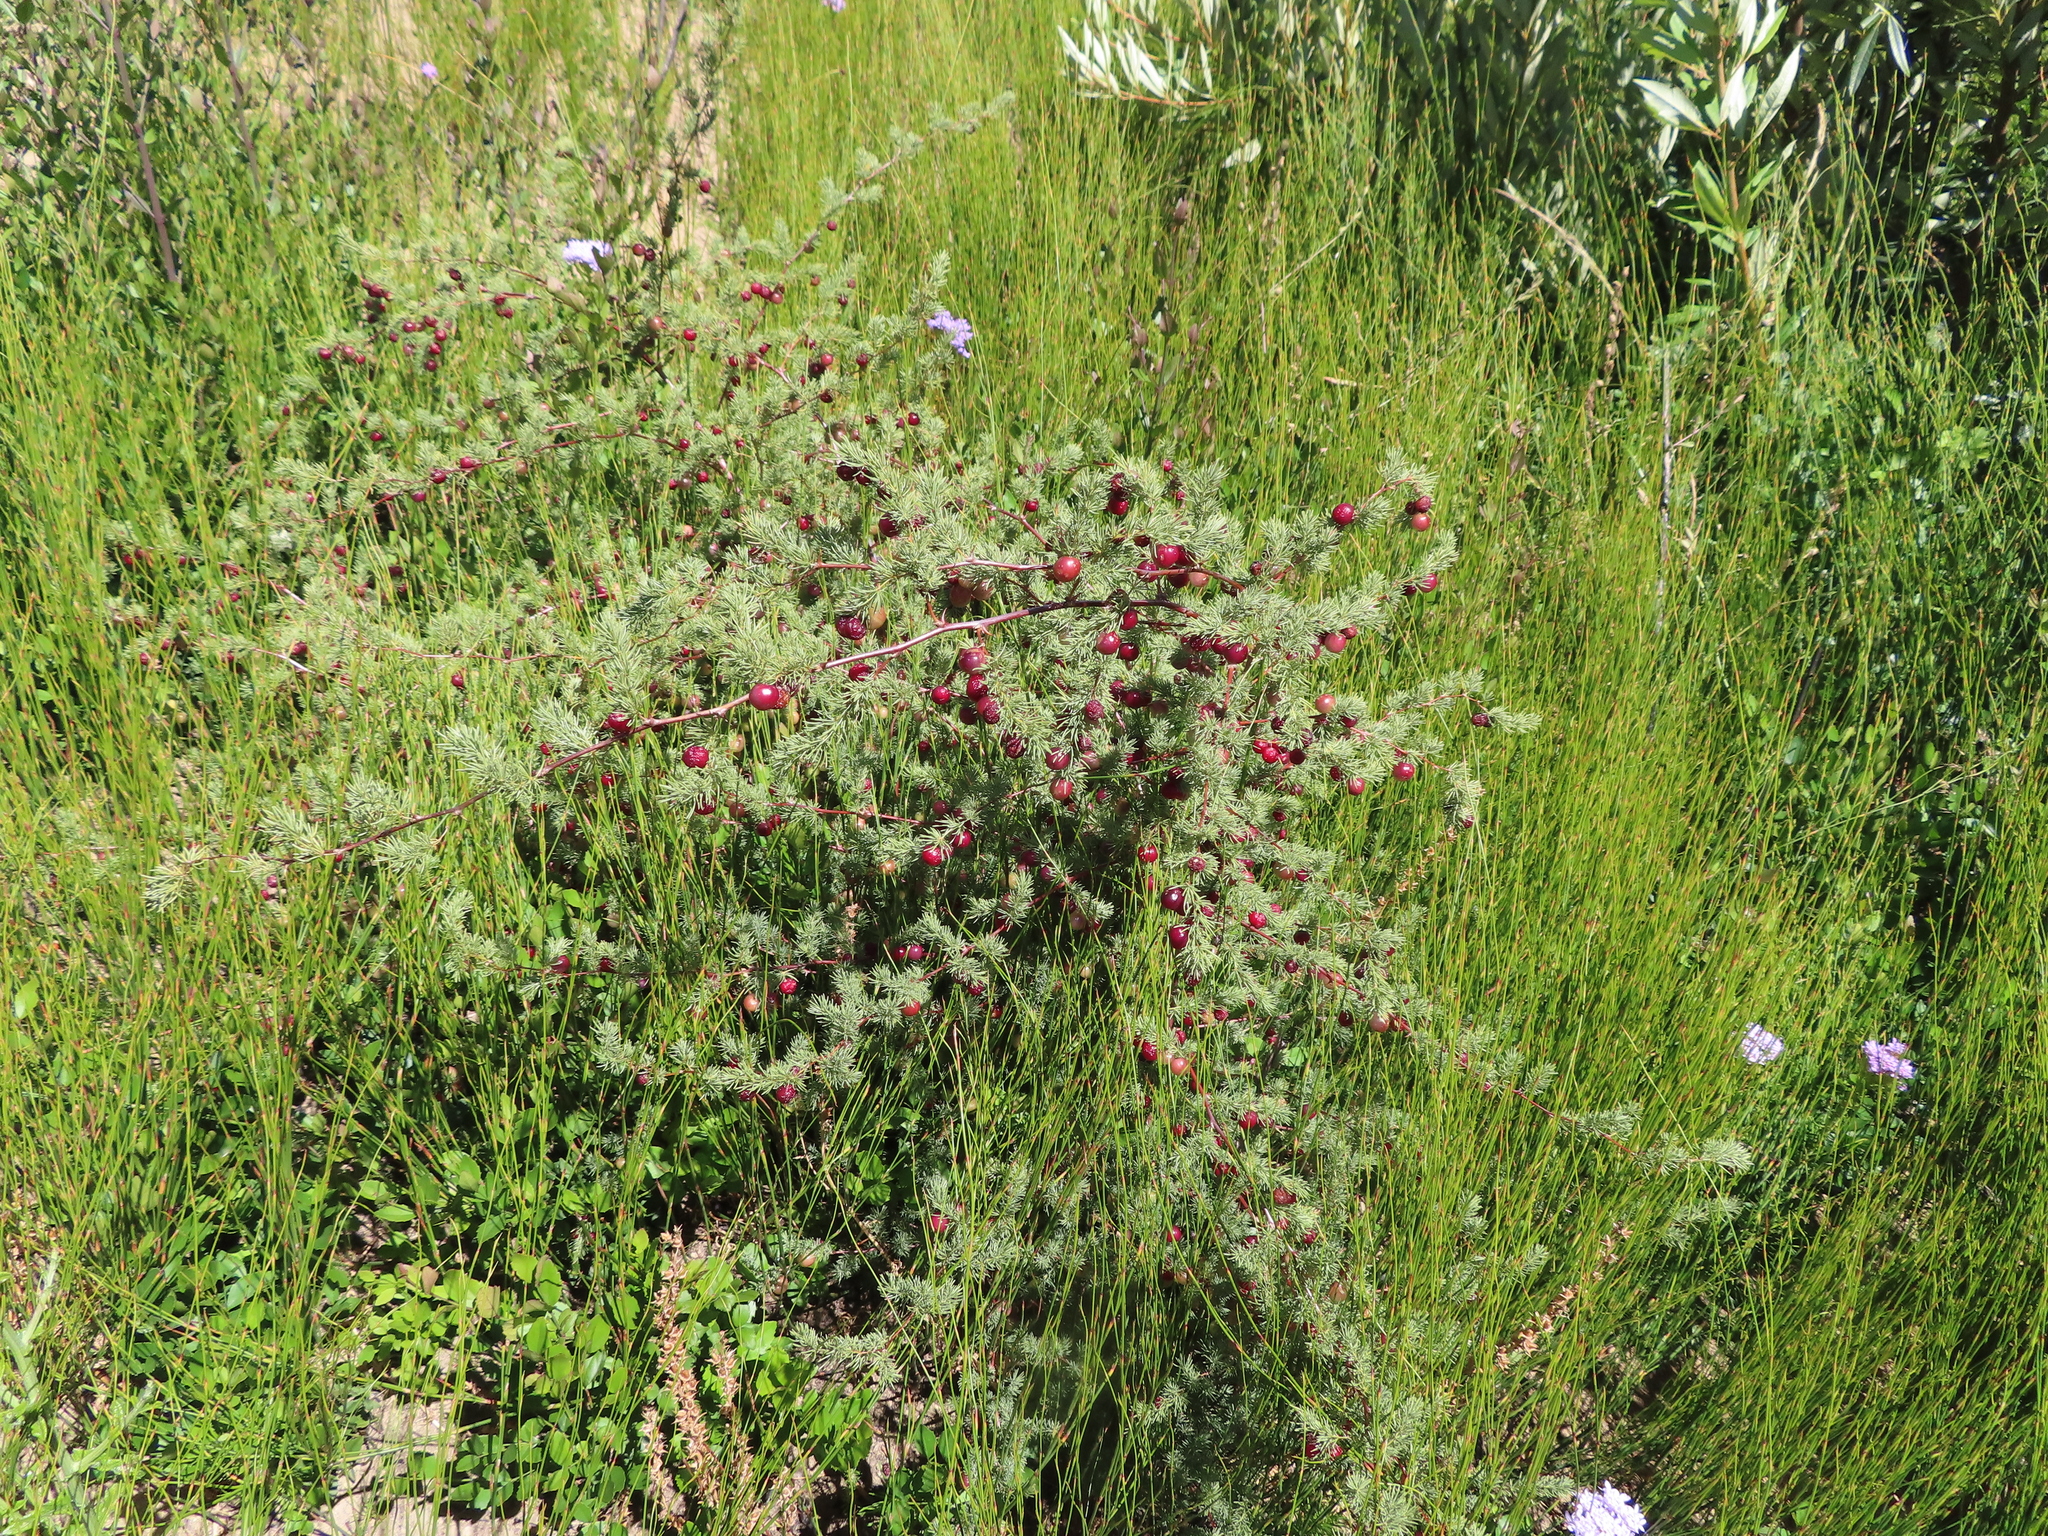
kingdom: Plantae
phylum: Tracheophyta
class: Liliopsida
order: Asparagales
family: Asparagaceae
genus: Asparagus
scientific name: Asparagus rubicundus
